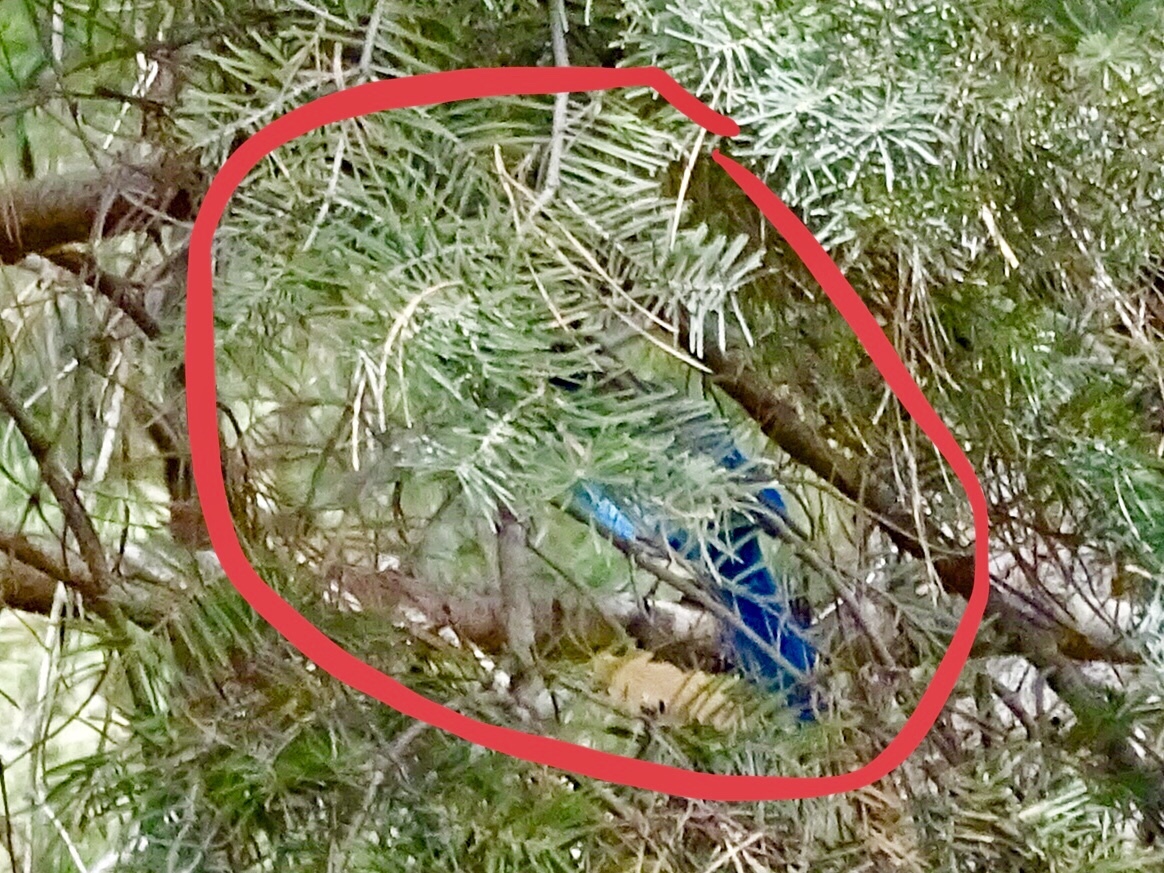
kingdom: Animalia
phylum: Chordata
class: Aves
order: Passeriformes
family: Corvidae
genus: Cyanocitta
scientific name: Cyanocitta stelleri
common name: Steller's jay
